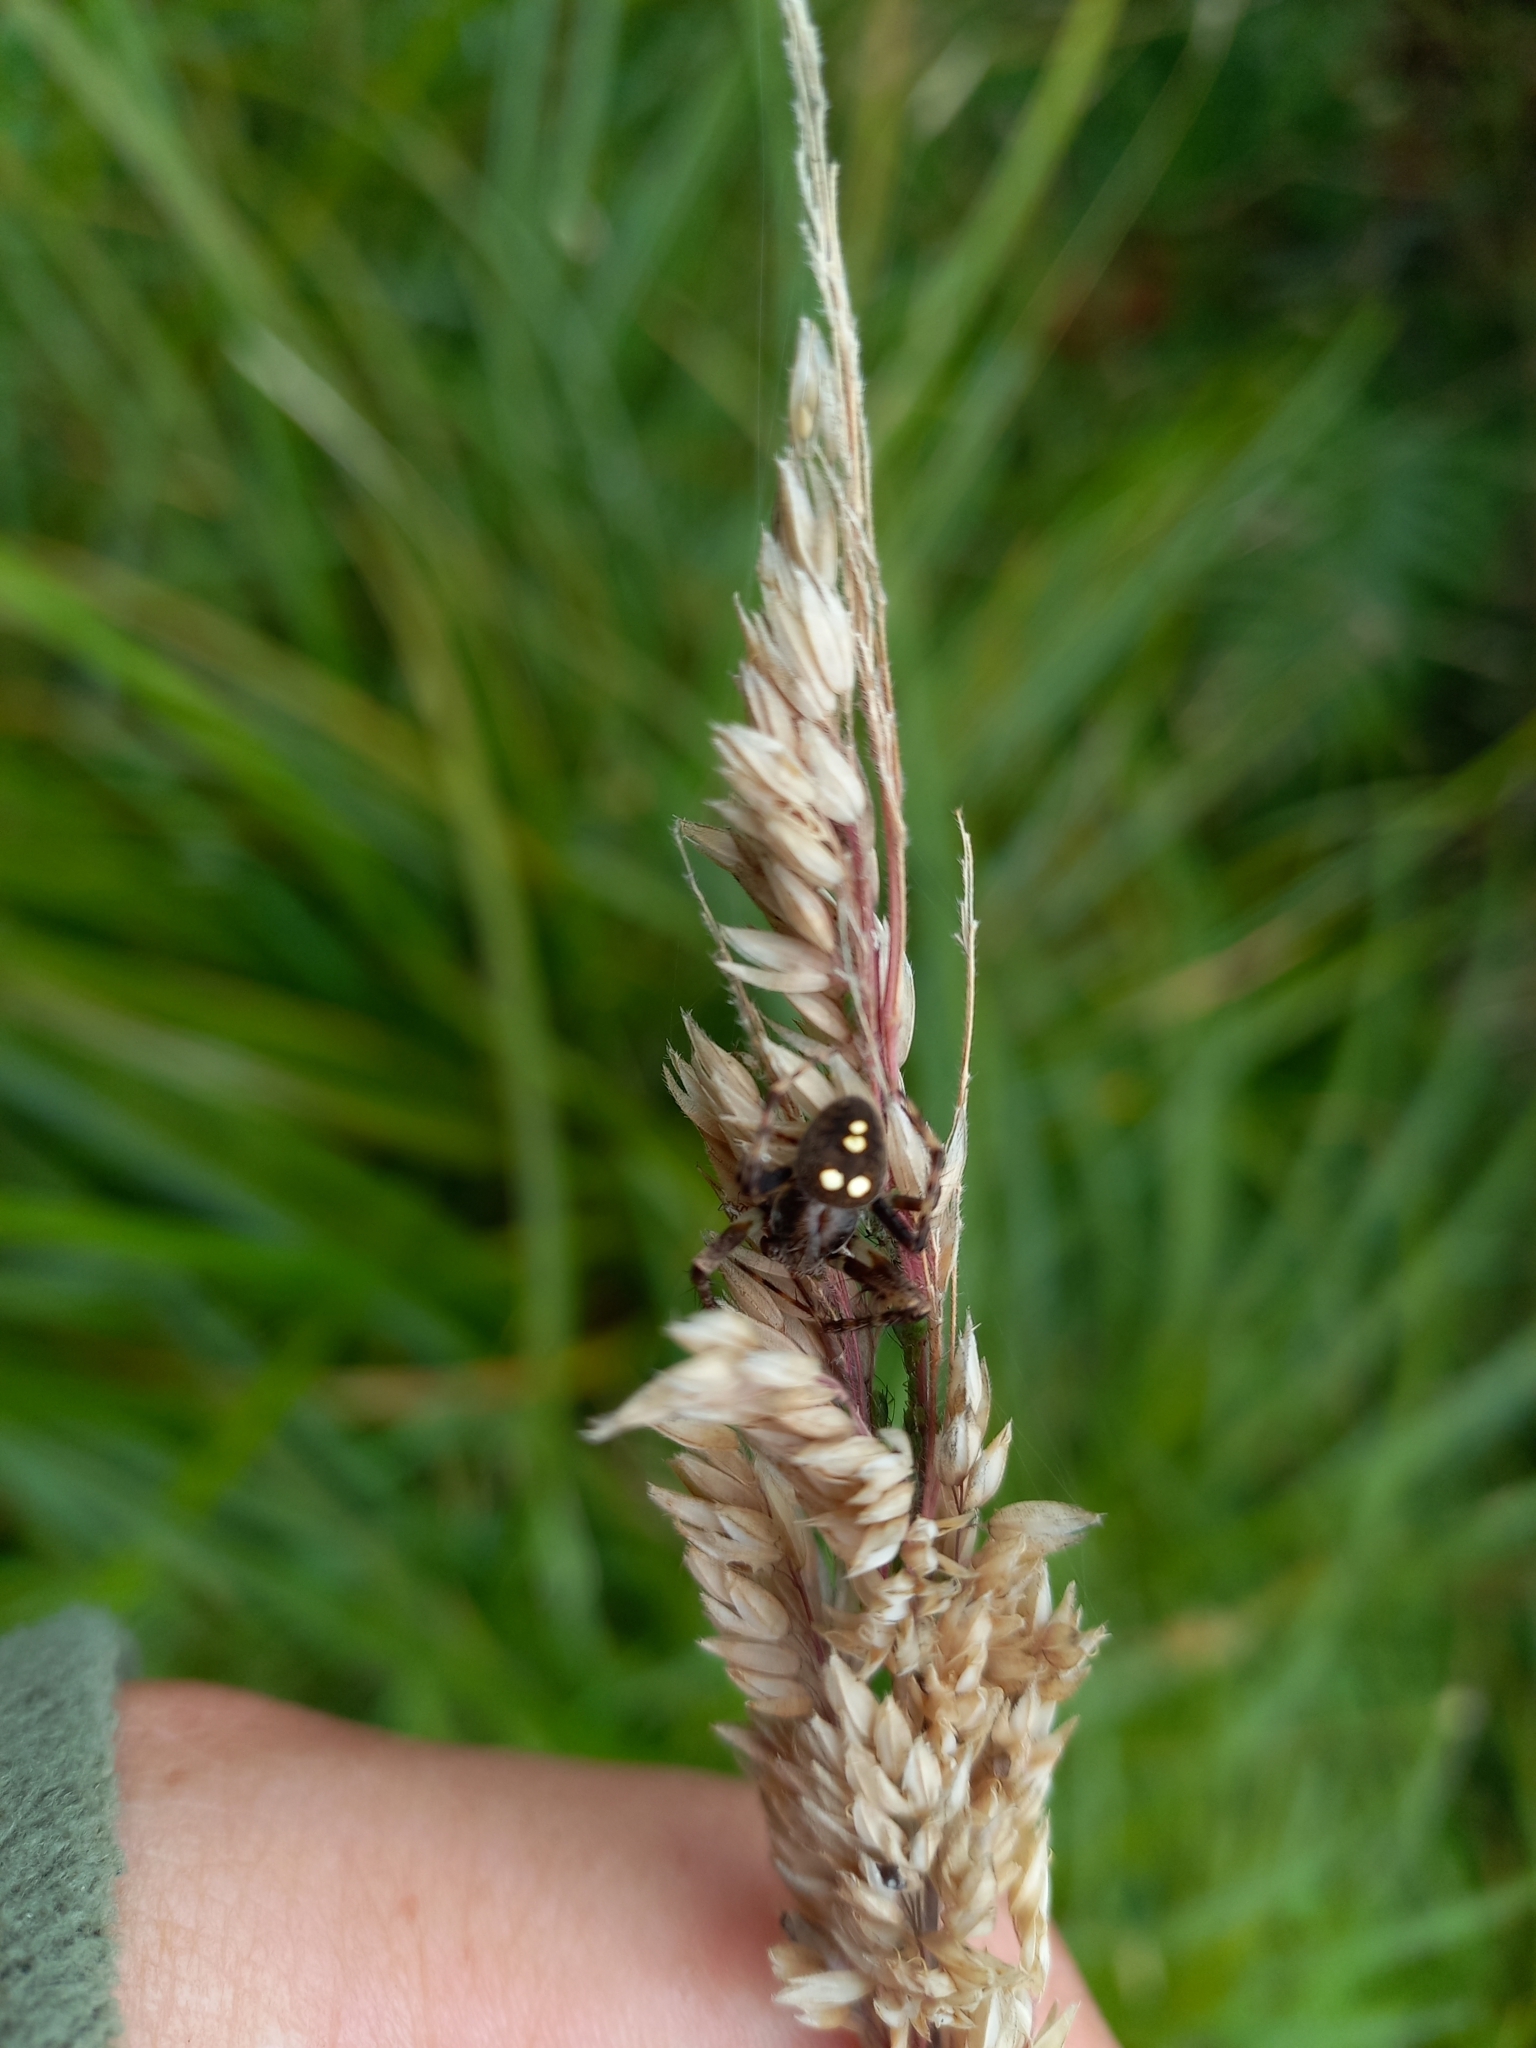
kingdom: Animalia
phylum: Arthropoda
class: Arachnida
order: Araneae
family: Araneidae
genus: Zealaranea
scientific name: Zealaranea trinotata
